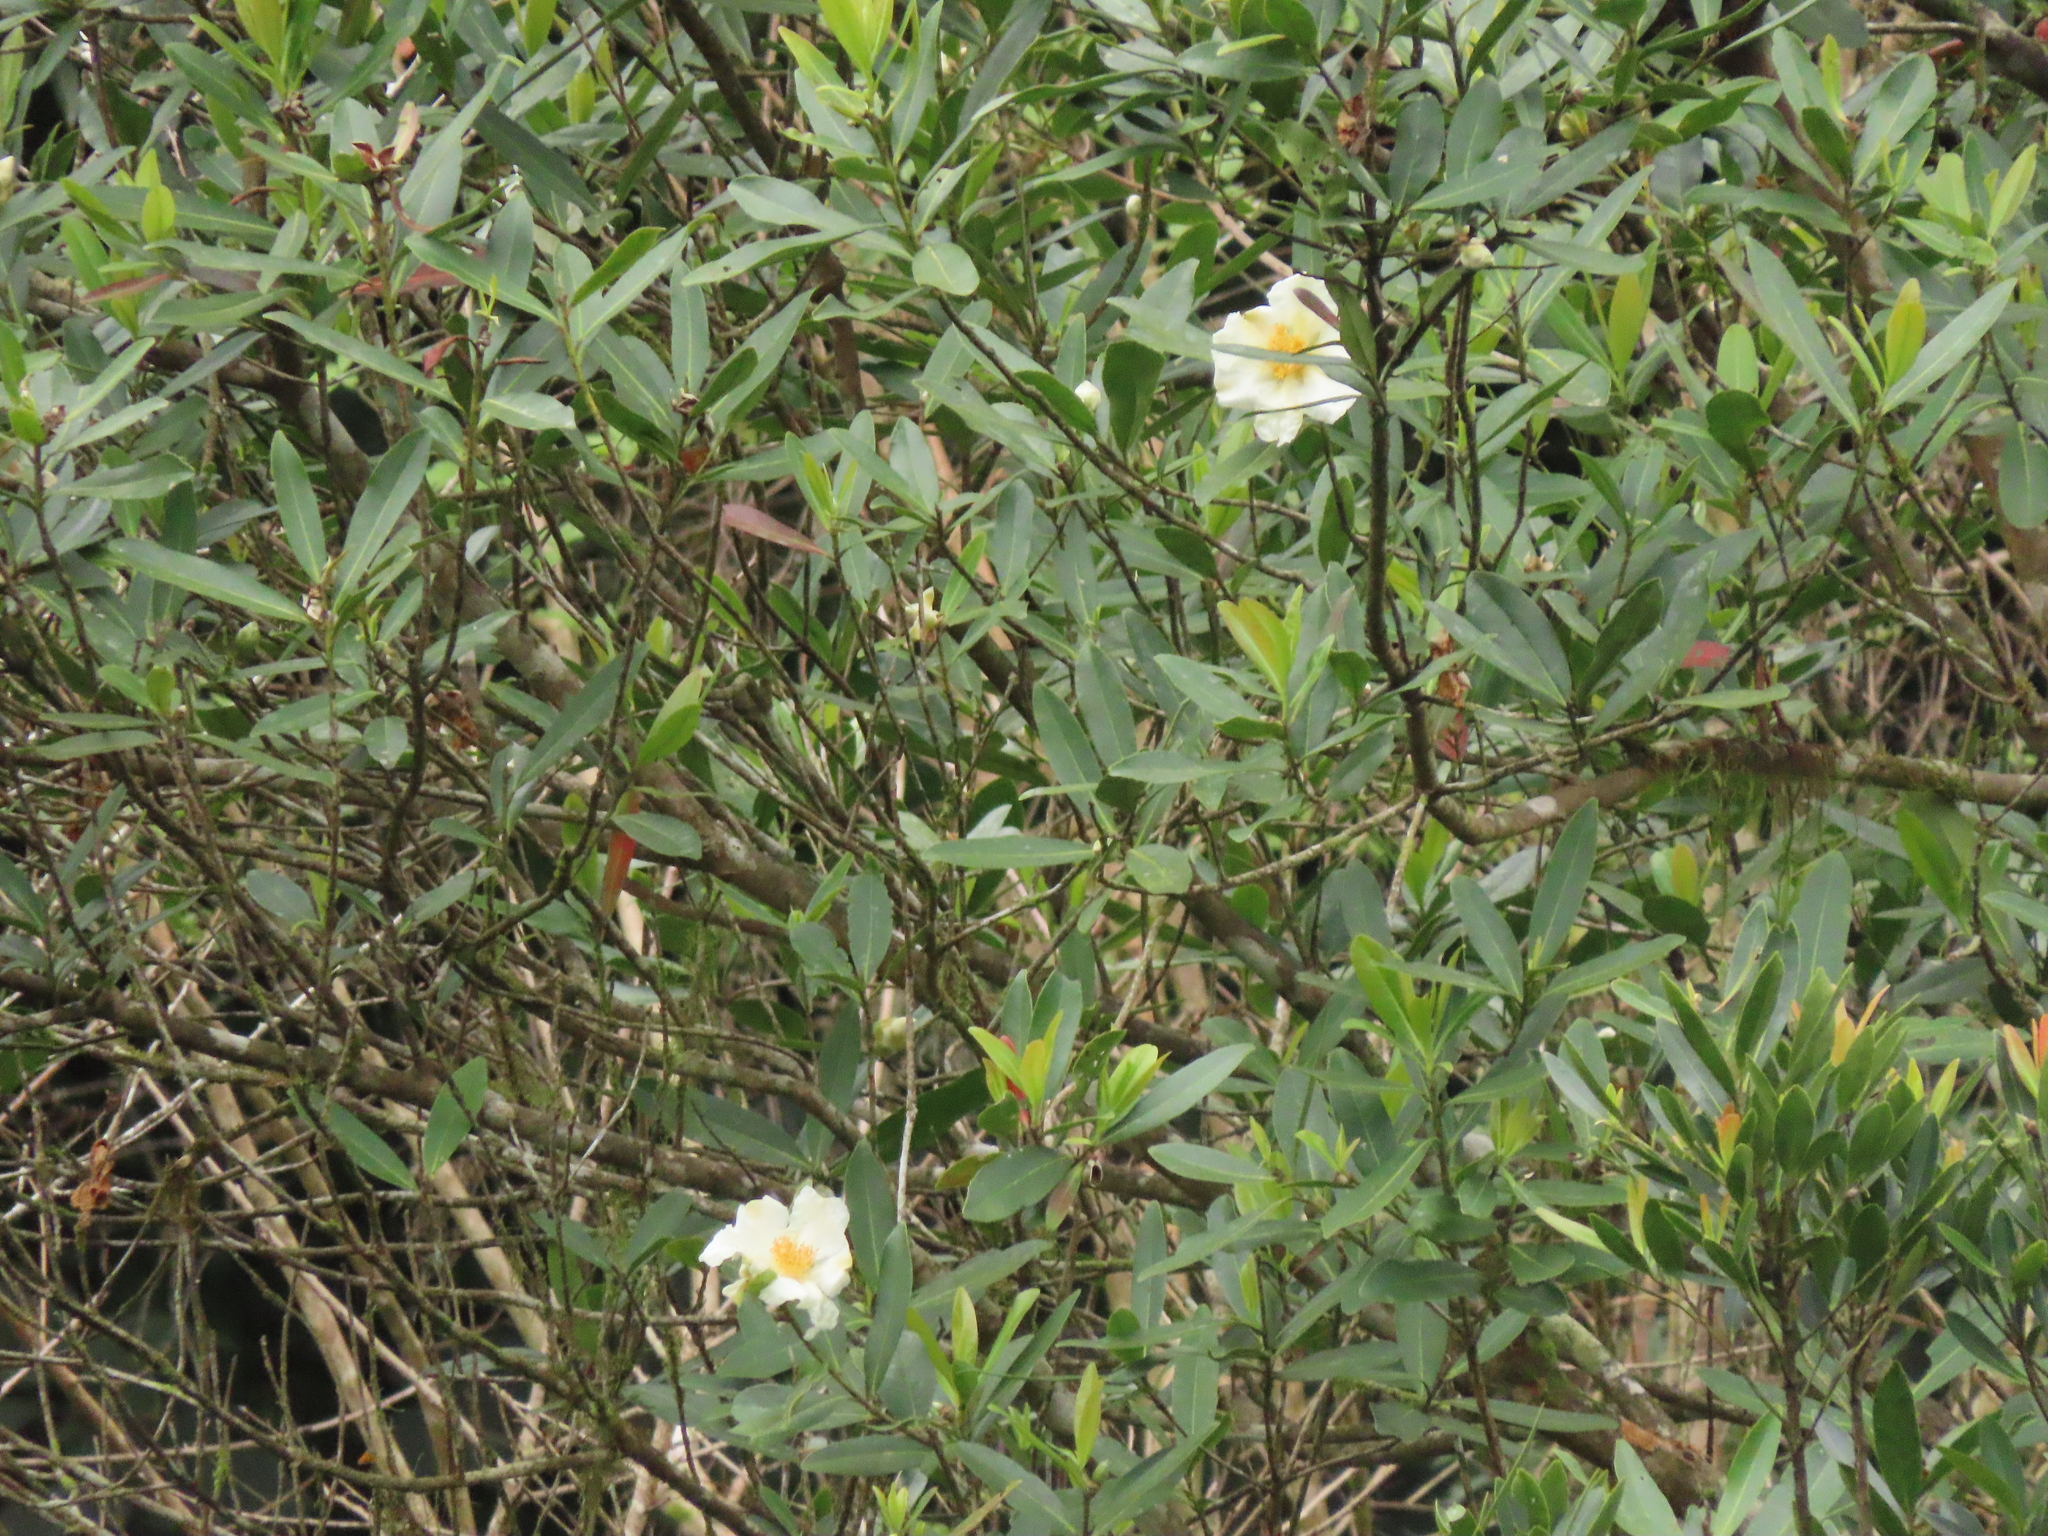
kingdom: Plantae
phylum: Tracheophyta
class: Magnoliopsida
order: Ericales
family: Theaceae
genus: Polyspora
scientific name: Polyspora axillaris
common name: Fried egg tree
